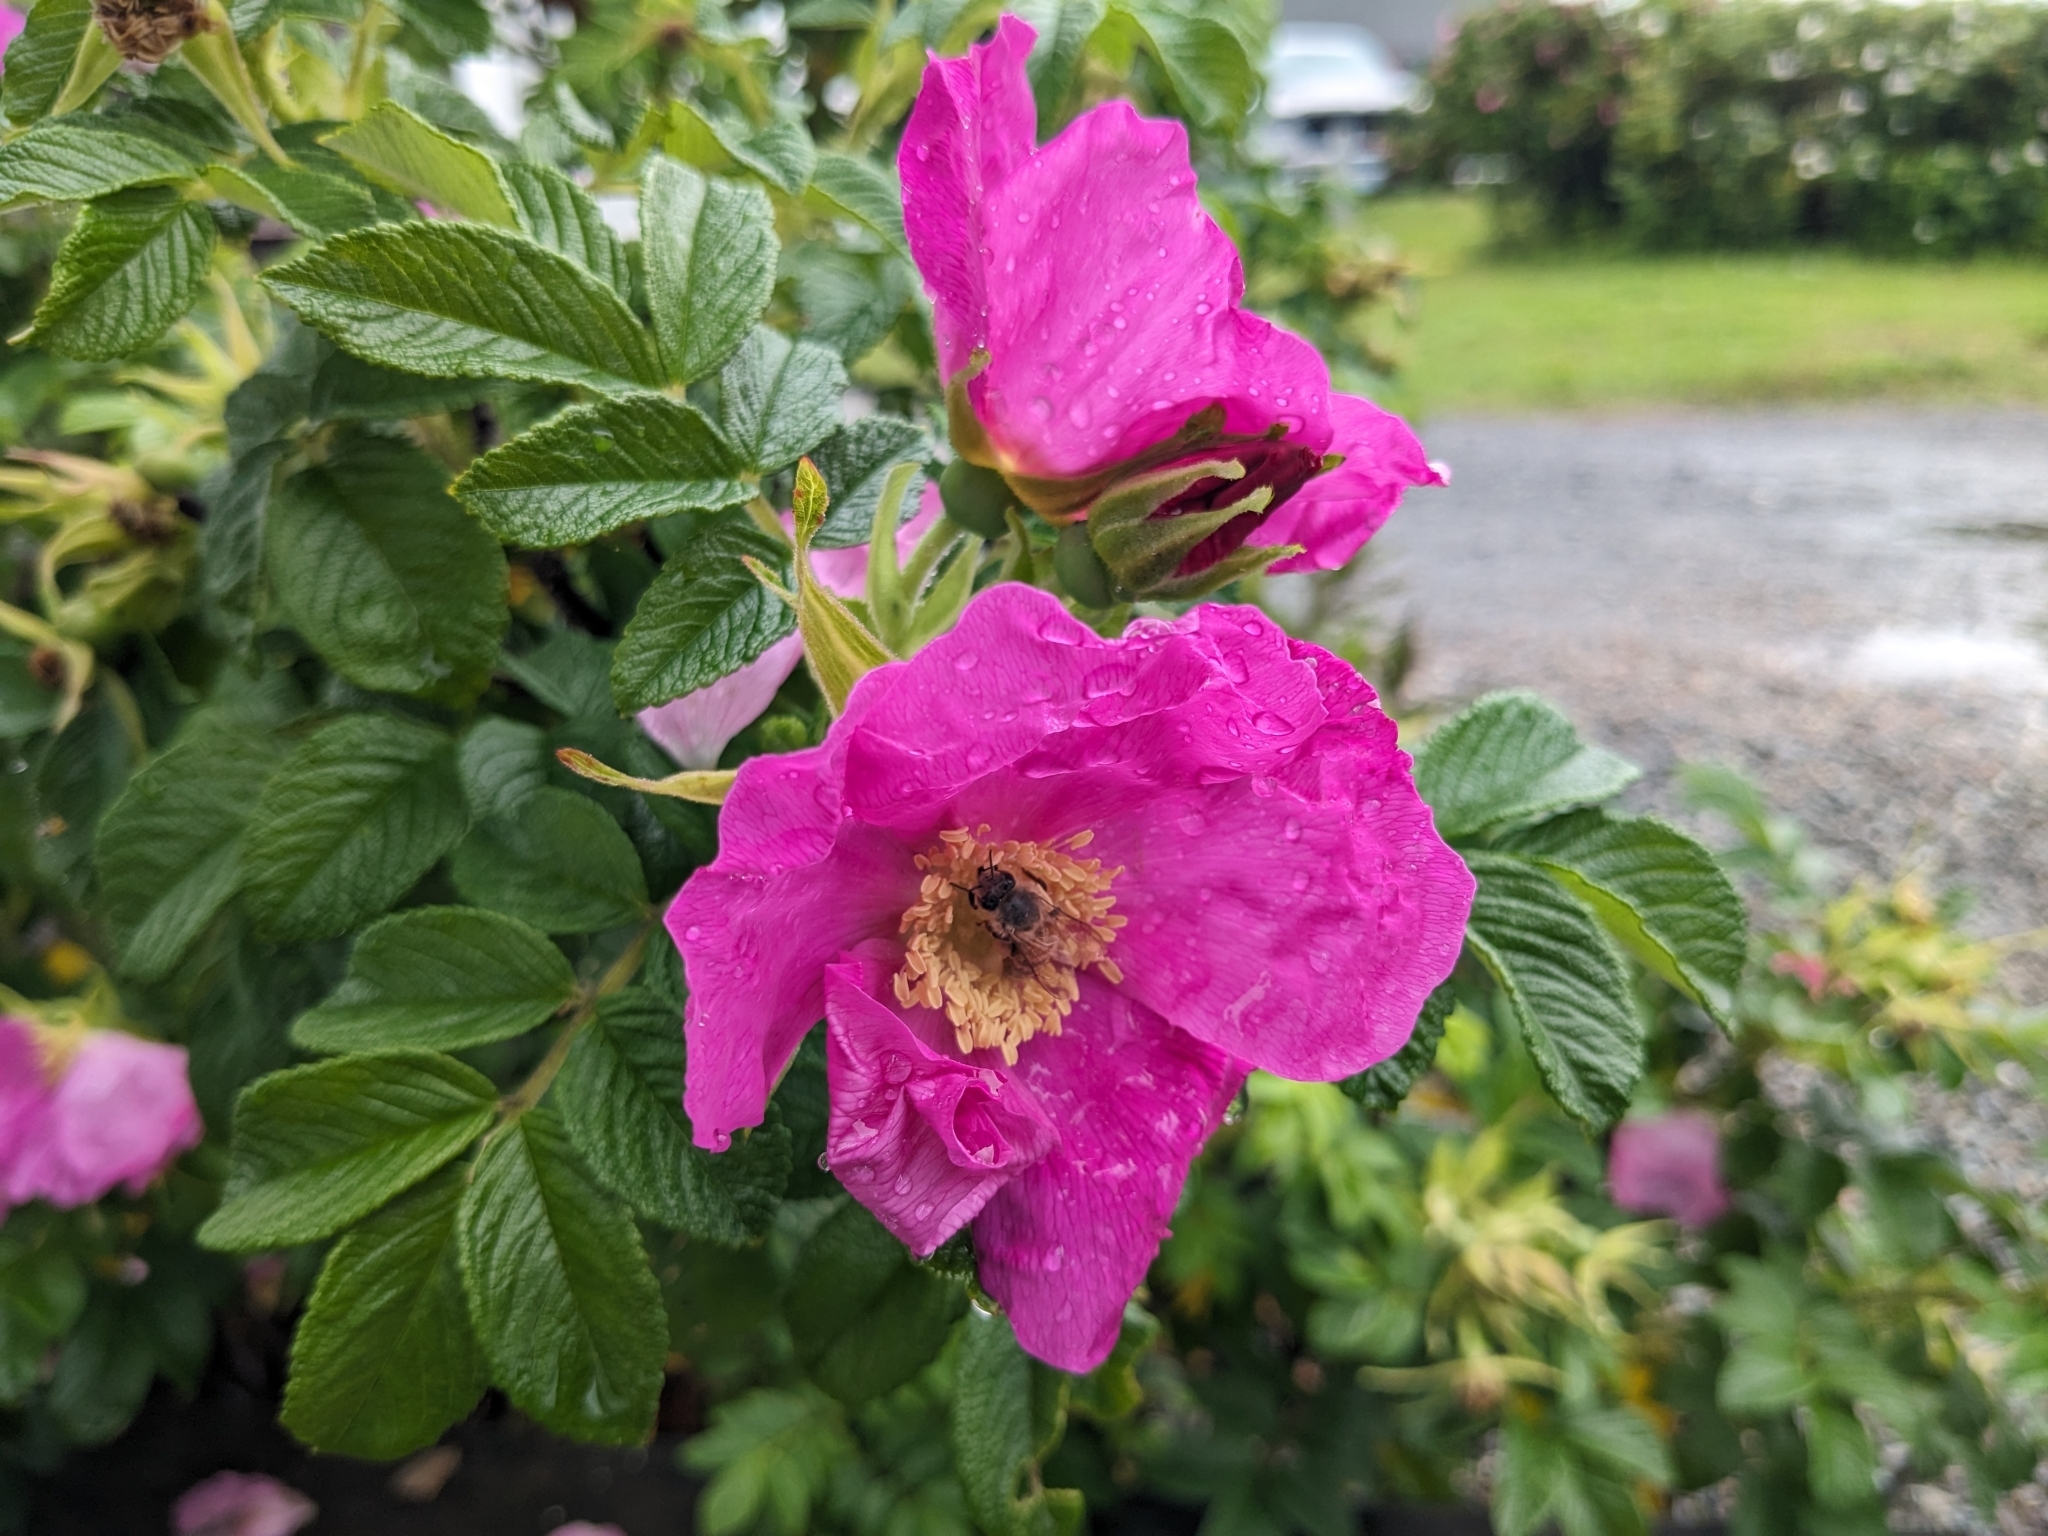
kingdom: Animalia
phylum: Arthropoda
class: Insecta
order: Hymenoptera
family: Apidae
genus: Apis
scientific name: Apis mellifera
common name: Honey bee
